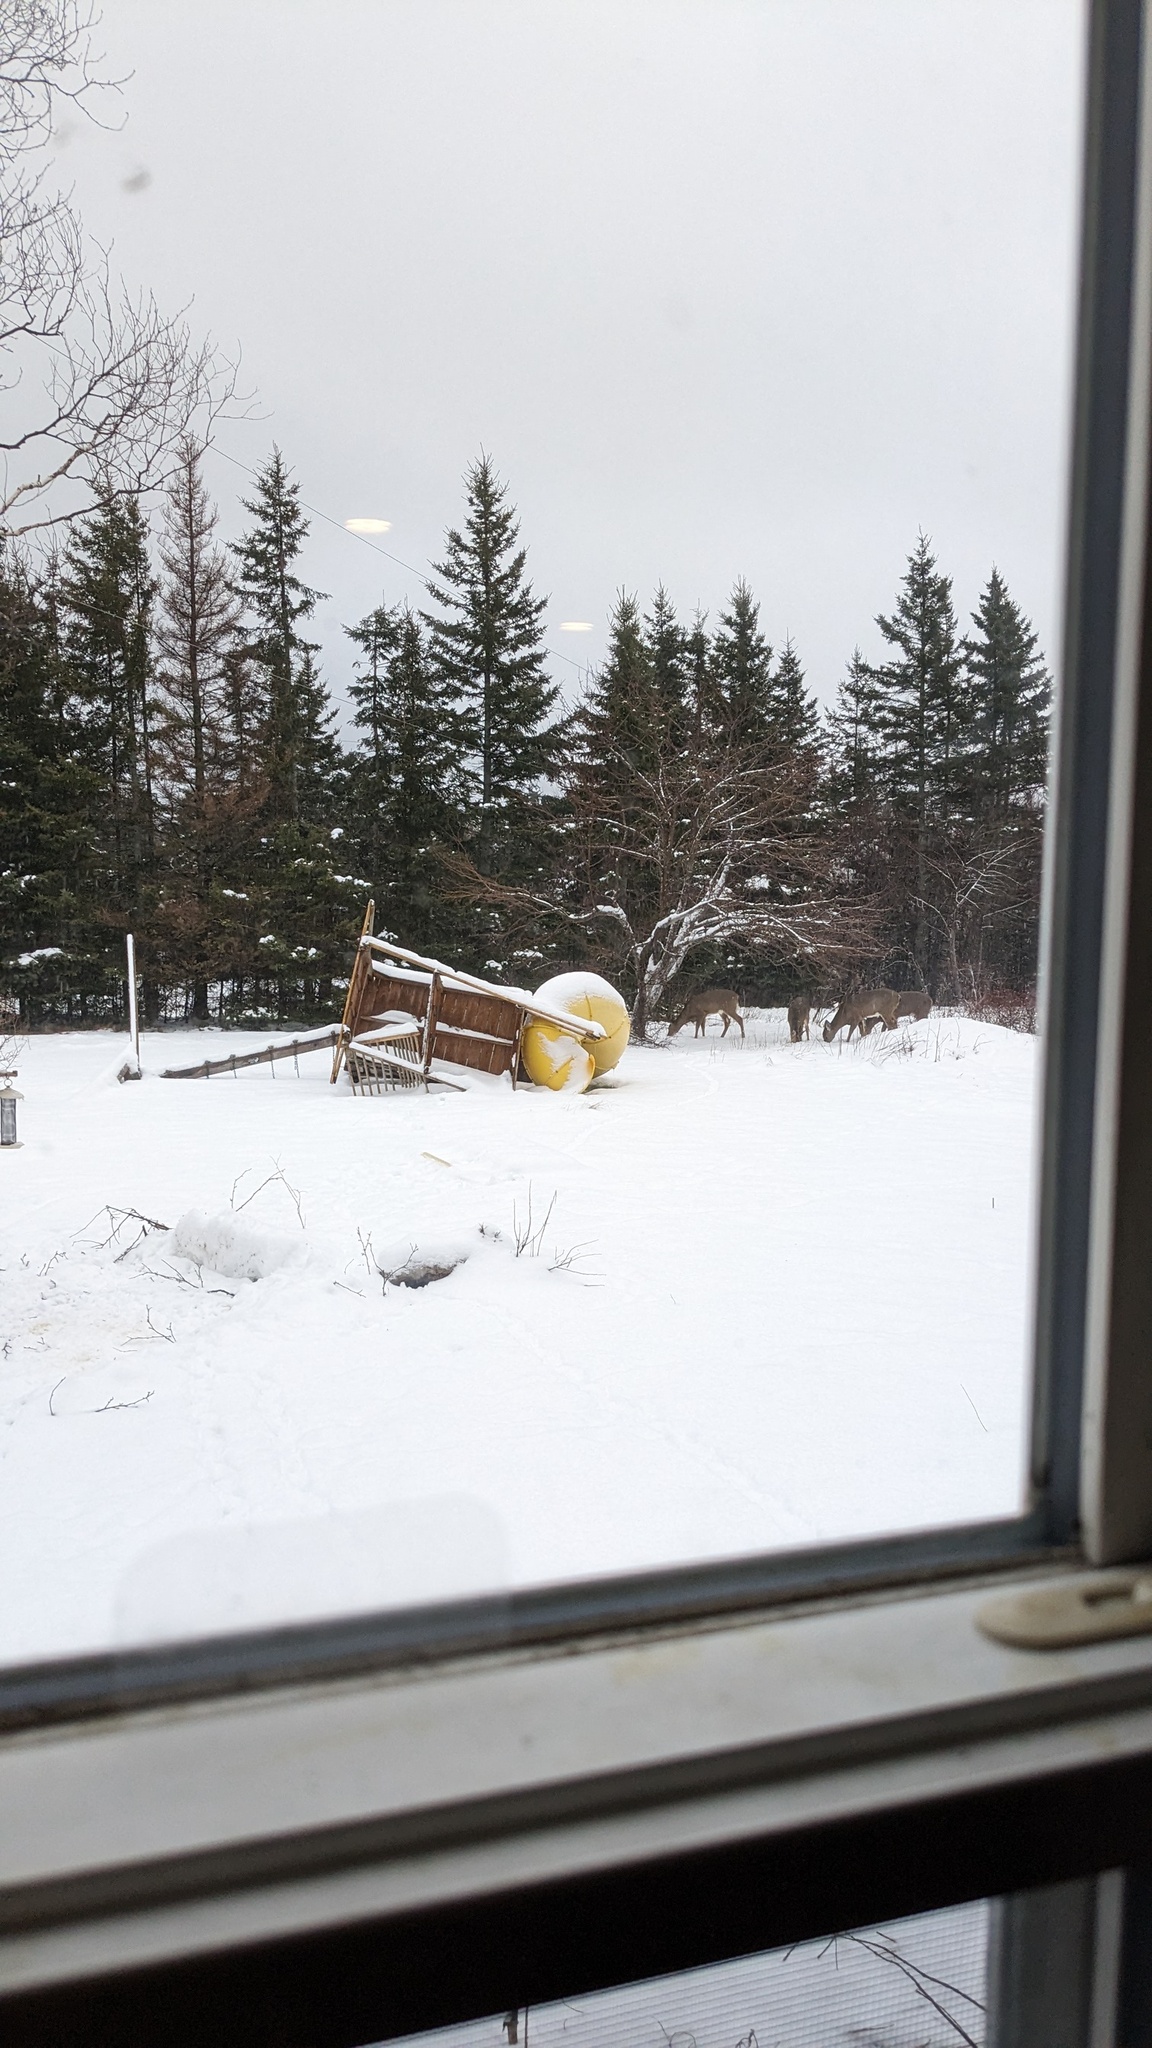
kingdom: Animalia
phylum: Chordata
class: Mammalia
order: Artiodactyla
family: Cervidae
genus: Odocoileus
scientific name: Odocoileus virginianus
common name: White-tailed deer
